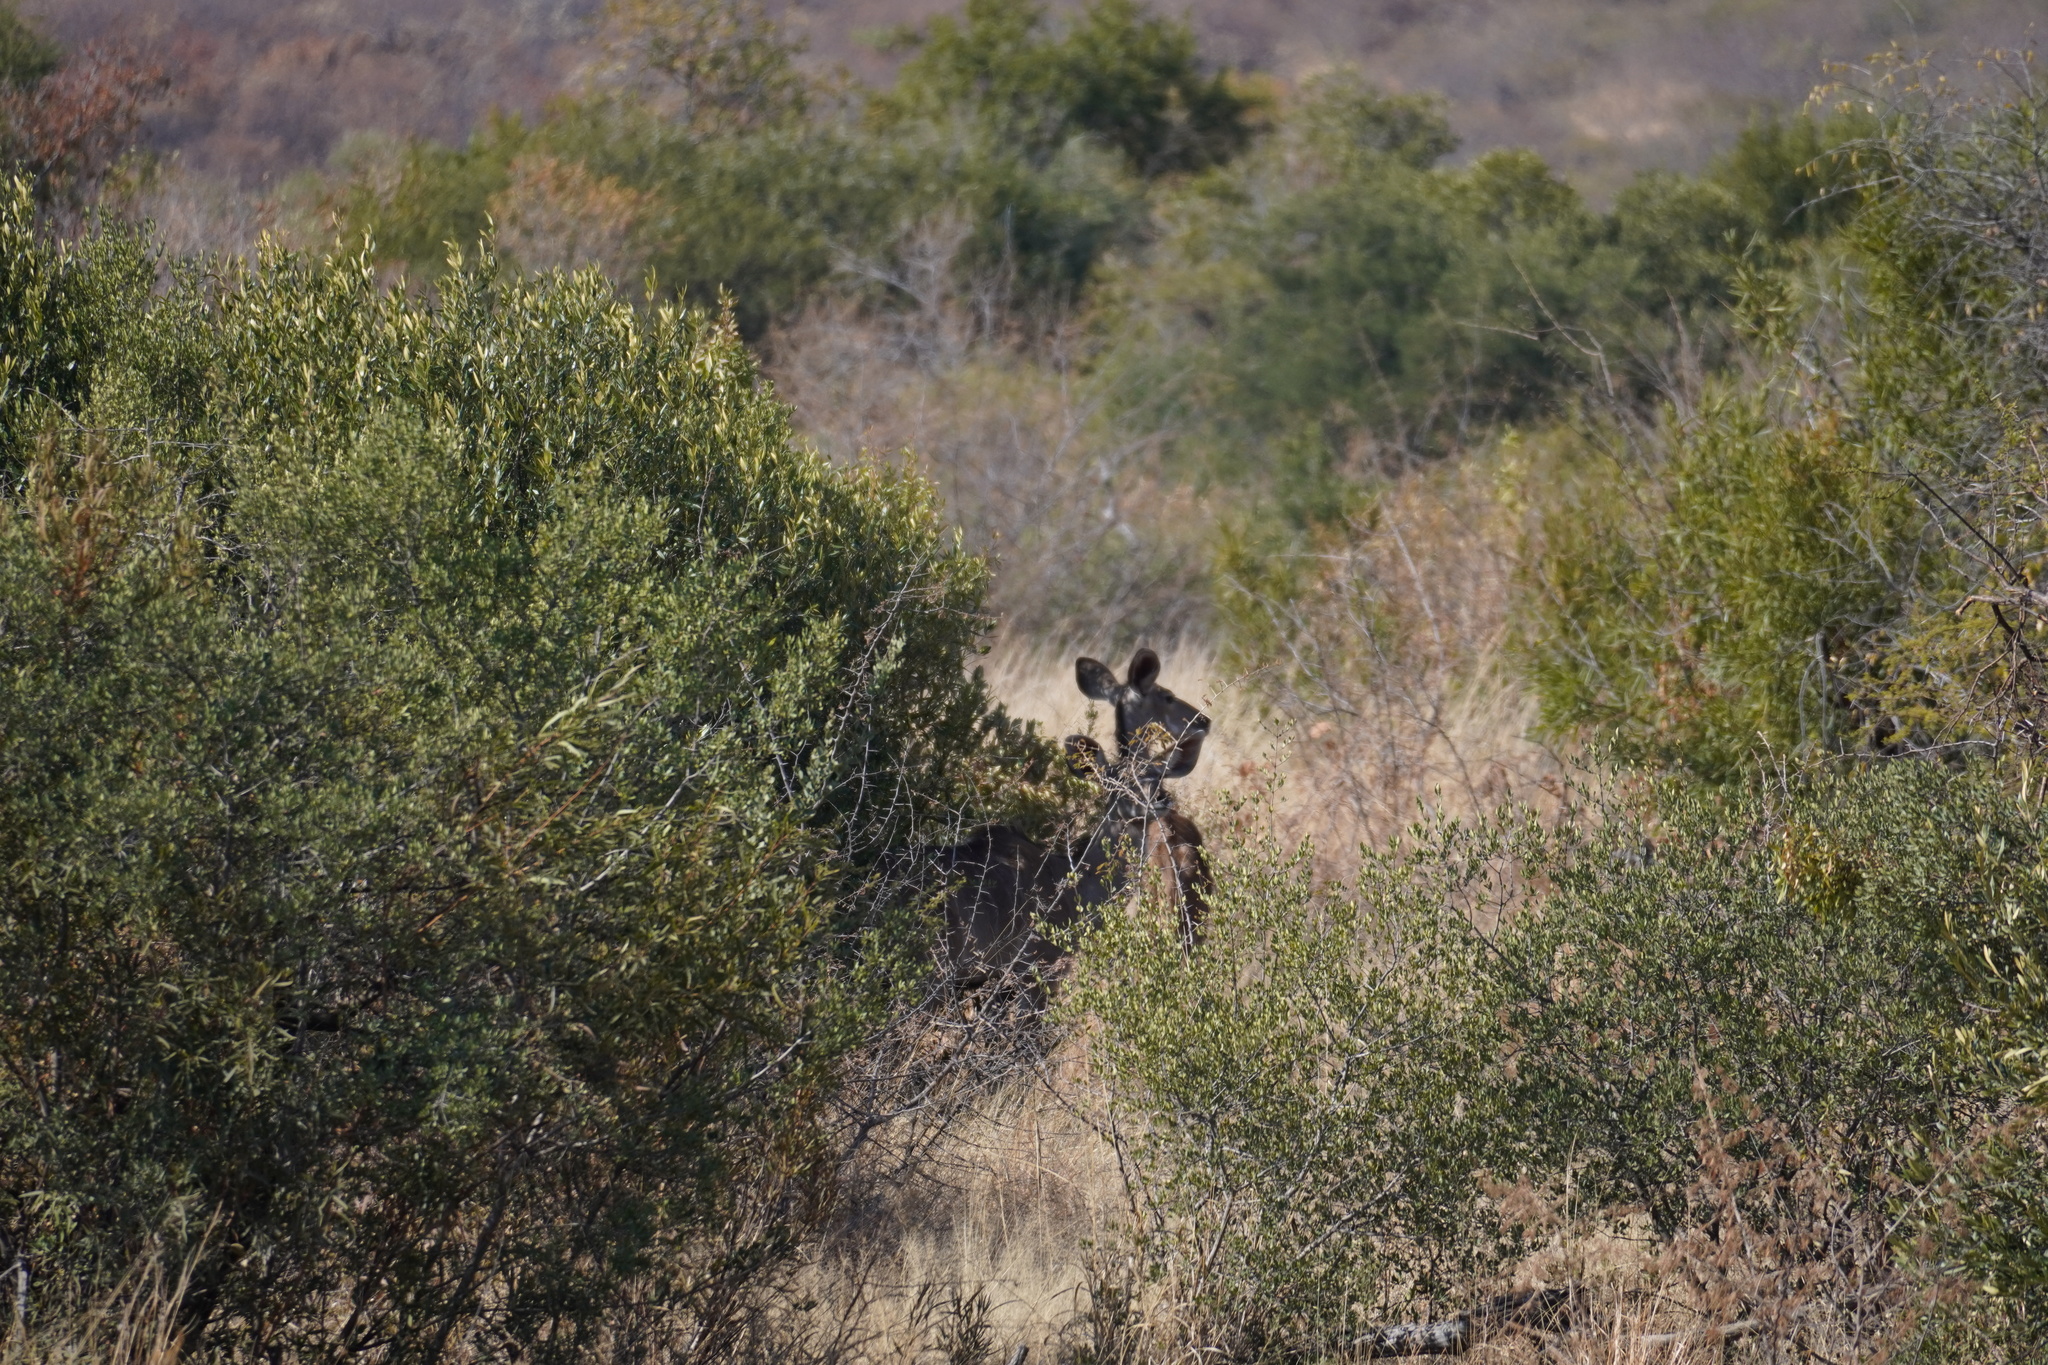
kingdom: Animalia
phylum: Chordata
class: Mammalia
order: Artiodactyla
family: Bovidae
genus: Tragelaphus
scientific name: Tragelaphus strepsiceros
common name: Greater kudu
